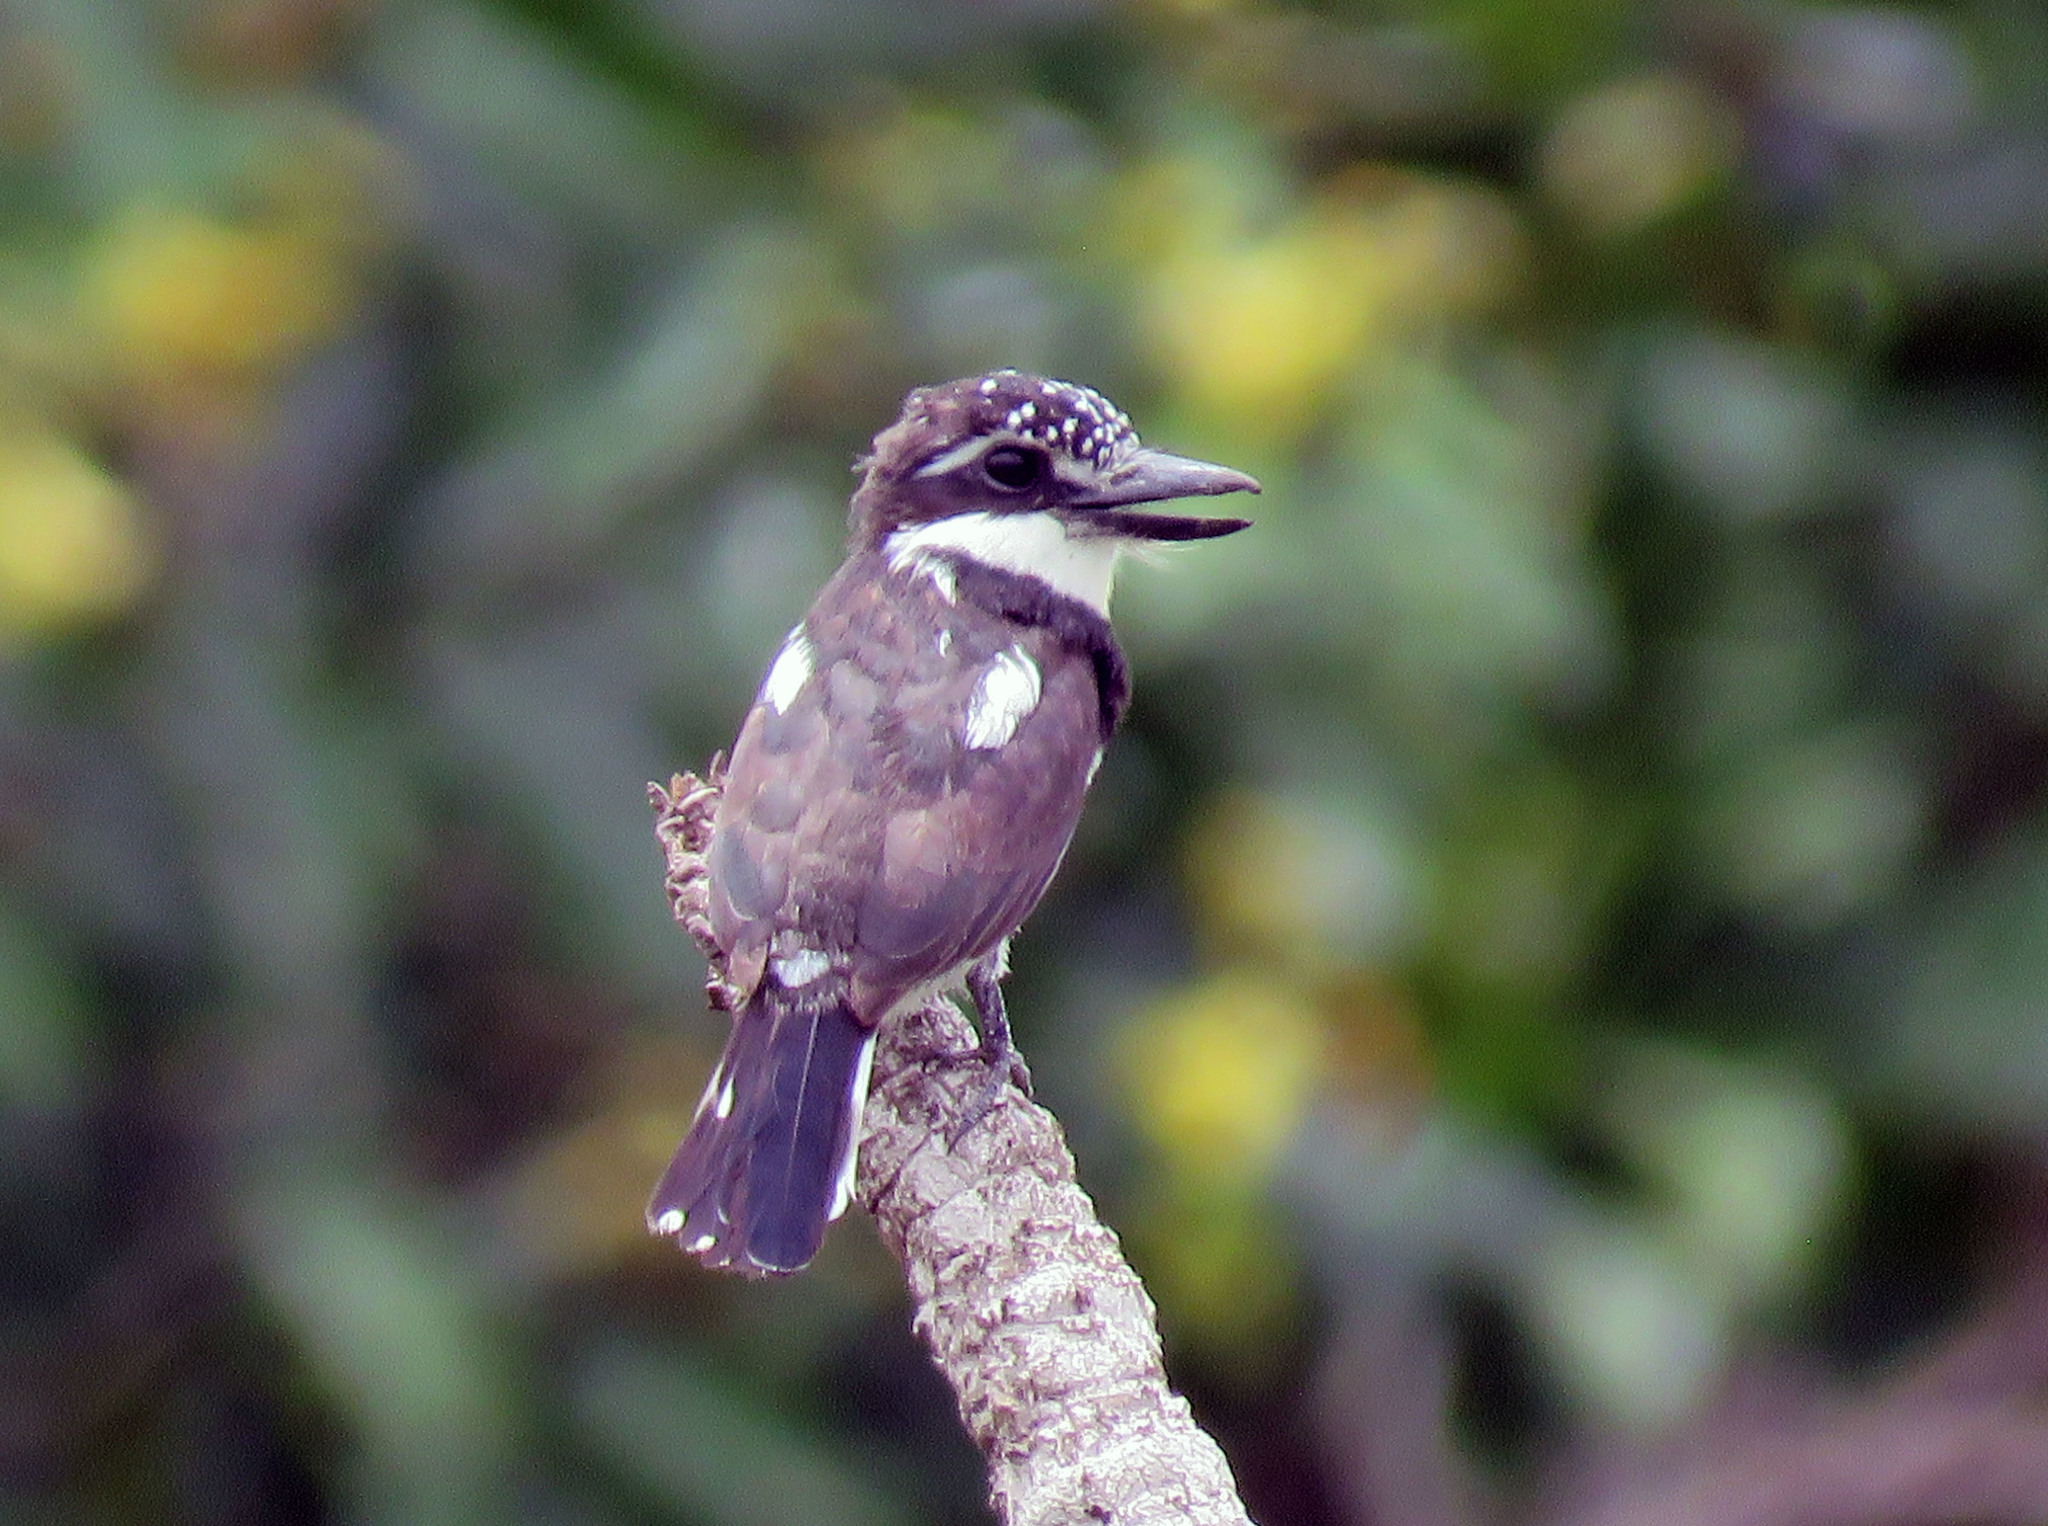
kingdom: Animalia
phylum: Chordata
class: Aves
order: Piciformes
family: Bucconidae
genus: Notharchus
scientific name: Notharchus tectus
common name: Pied puffbird
